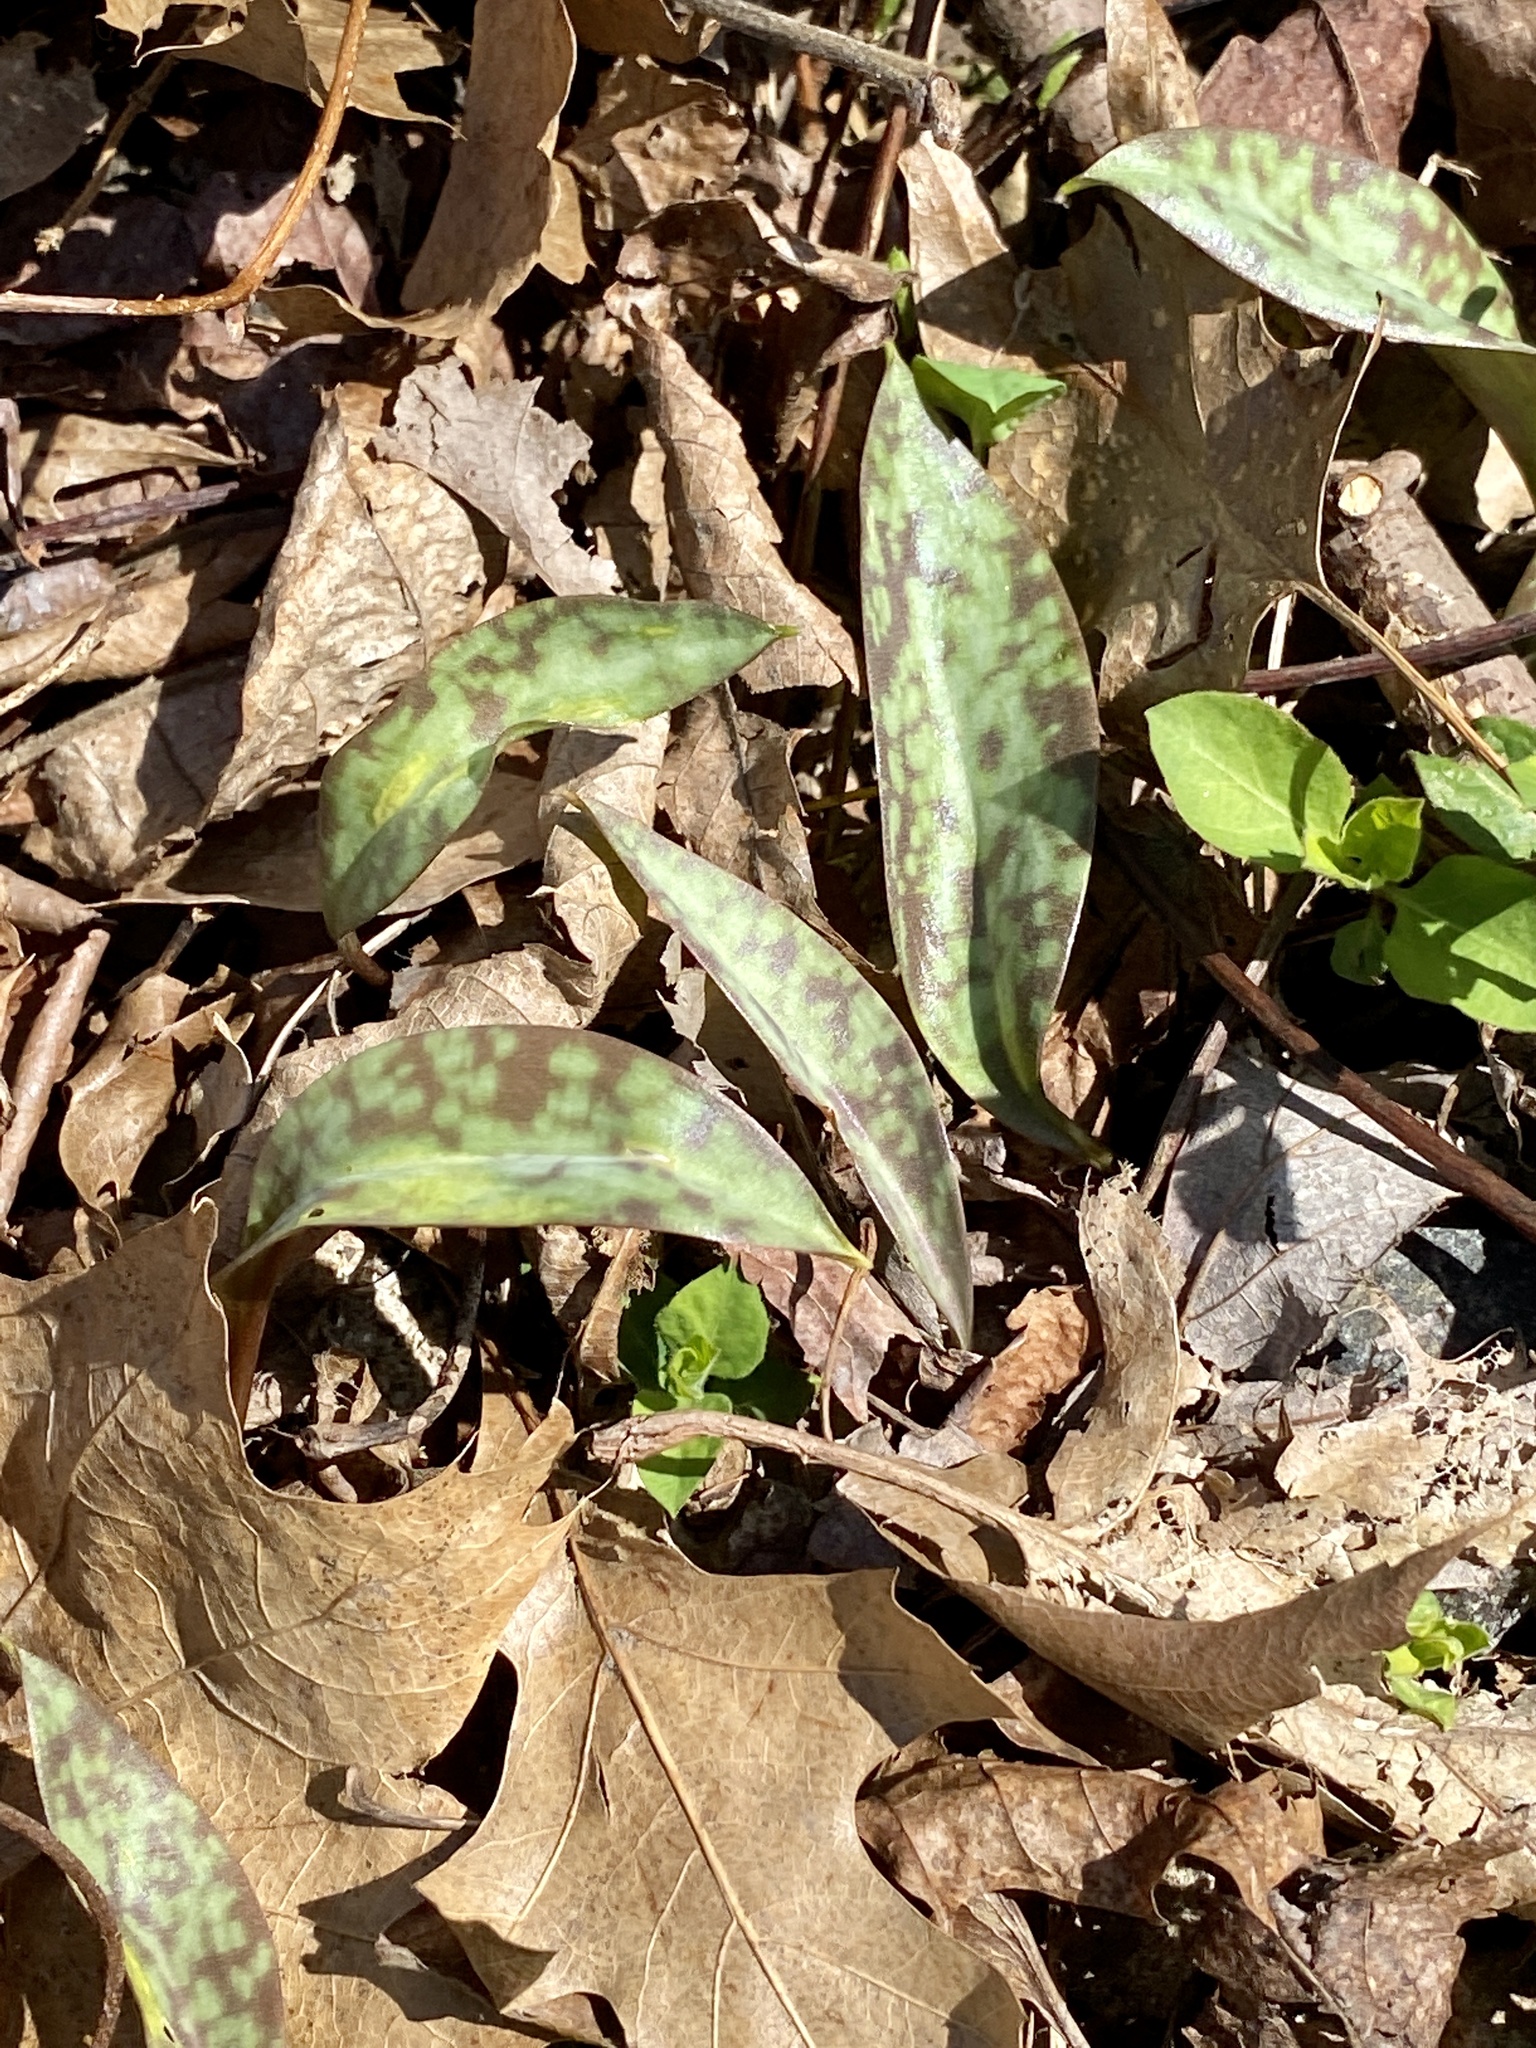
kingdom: Plantae
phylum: Tracheophyta
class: Liliopsida
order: Liliales
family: Liliaceae
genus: Erythronium
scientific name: Erythronium americanum
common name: Yellow adder's-tongue
